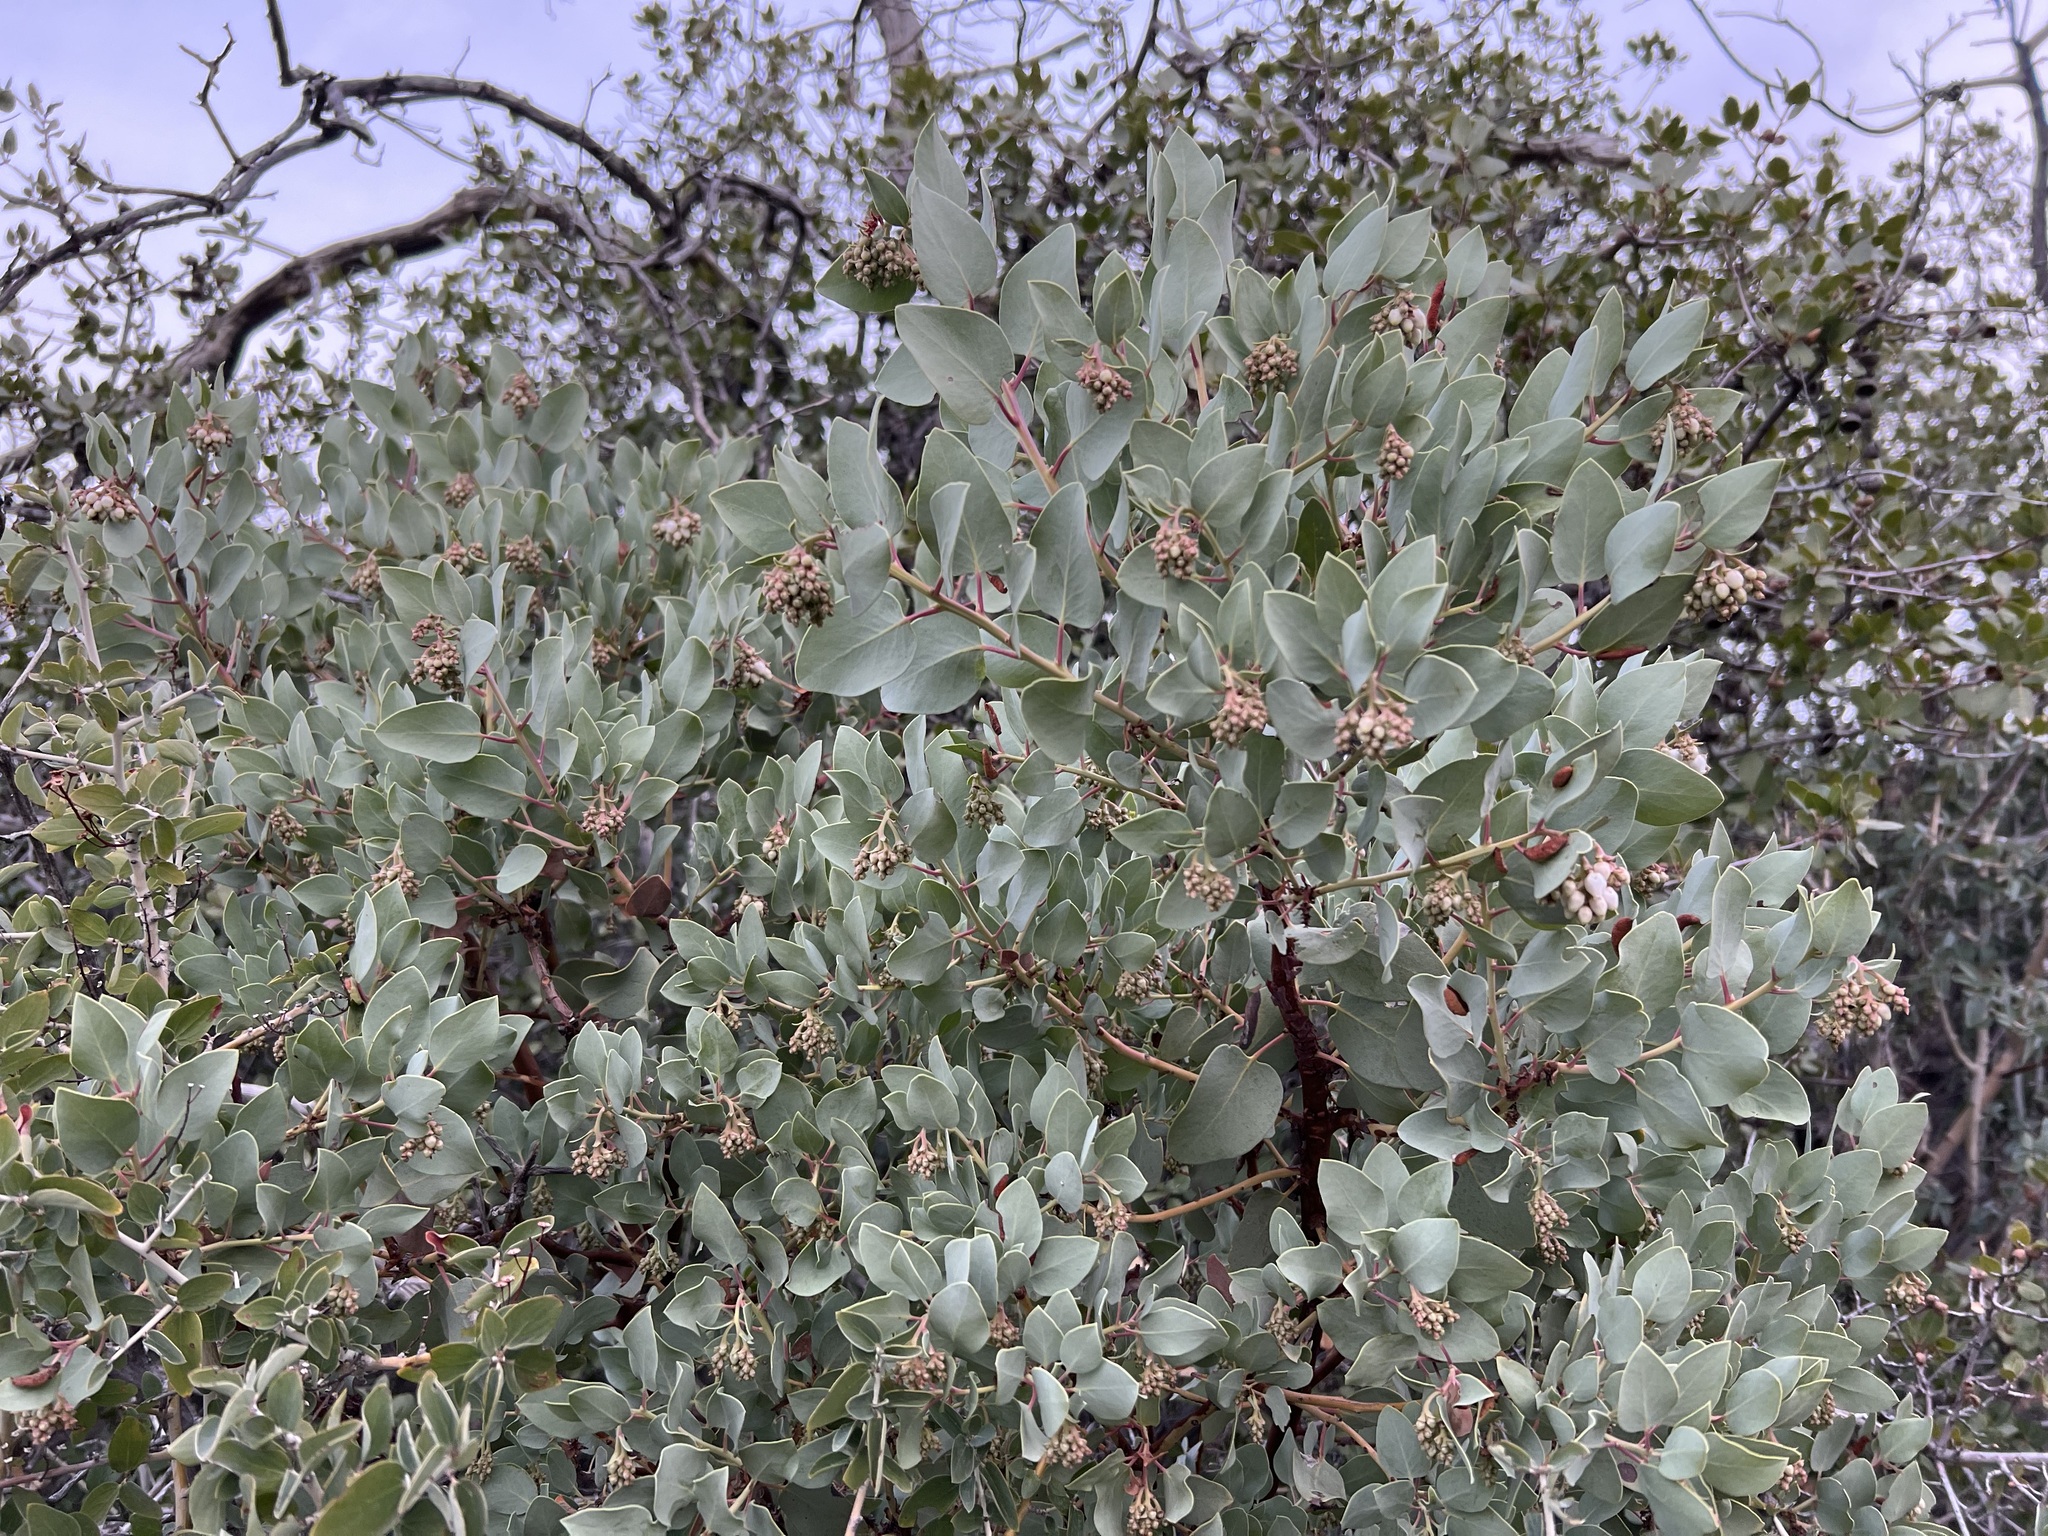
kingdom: Plantae
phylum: Tracheophyta
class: Magnoliopsida
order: Ericales
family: Ericaceae
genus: Arctostaphylos
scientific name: Arctostaphylos glauca
